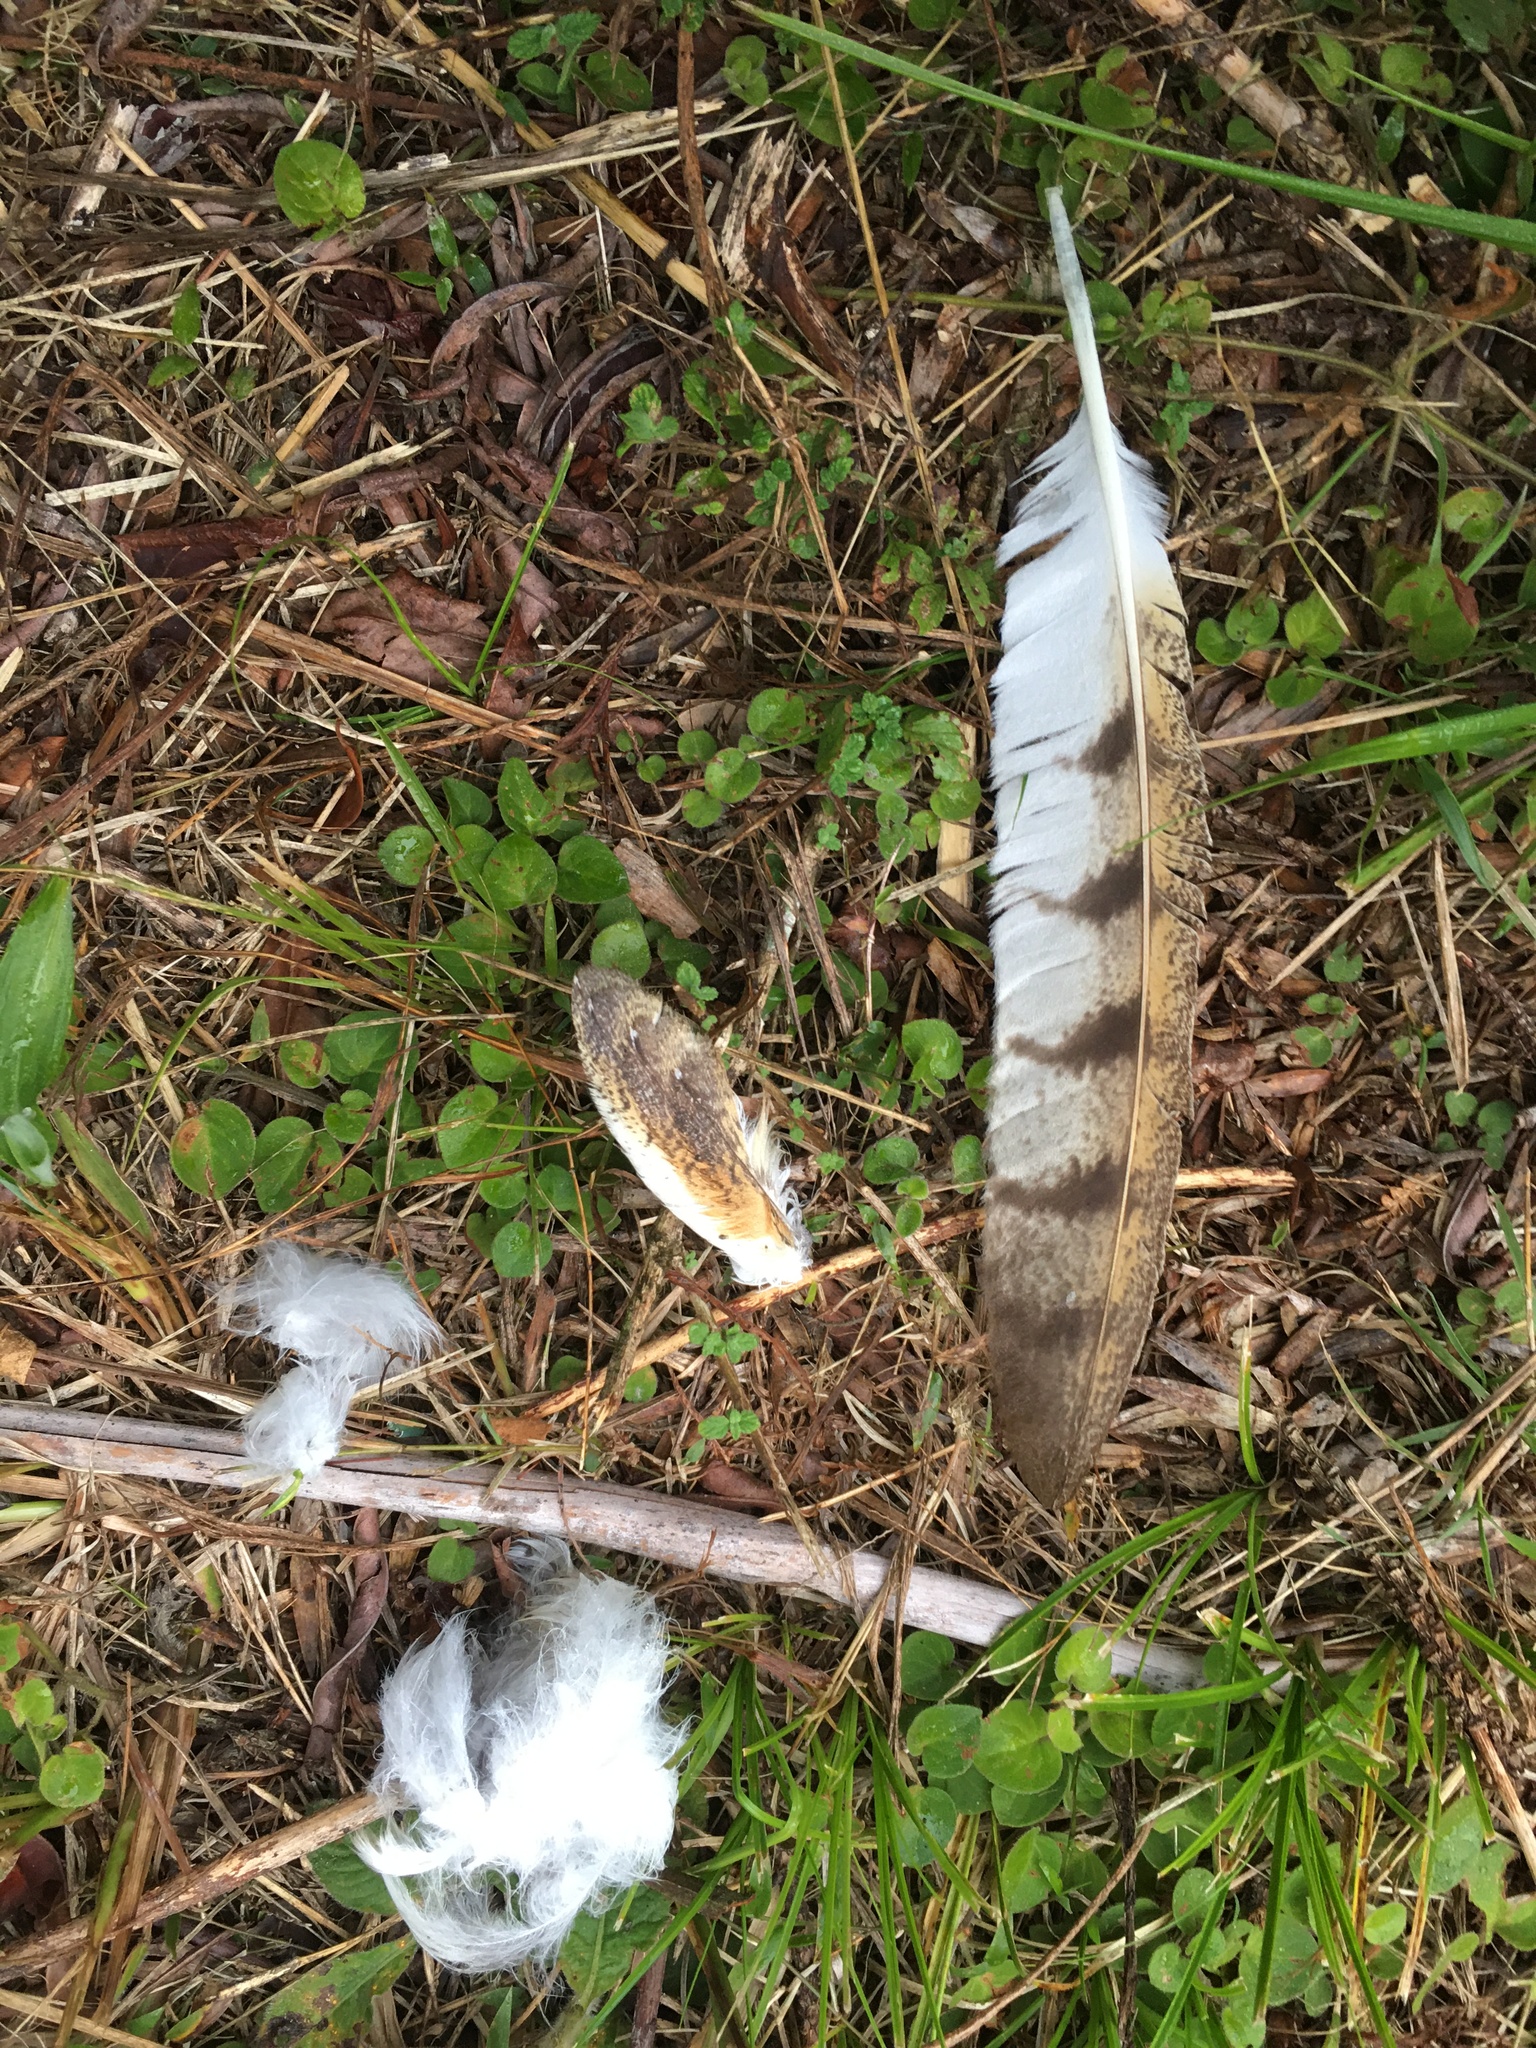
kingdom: Animalia
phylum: Chordata
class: Aves
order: Strigiformes
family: Tytonidae
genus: Tyto
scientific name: Tyto alba
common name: Barn owl
